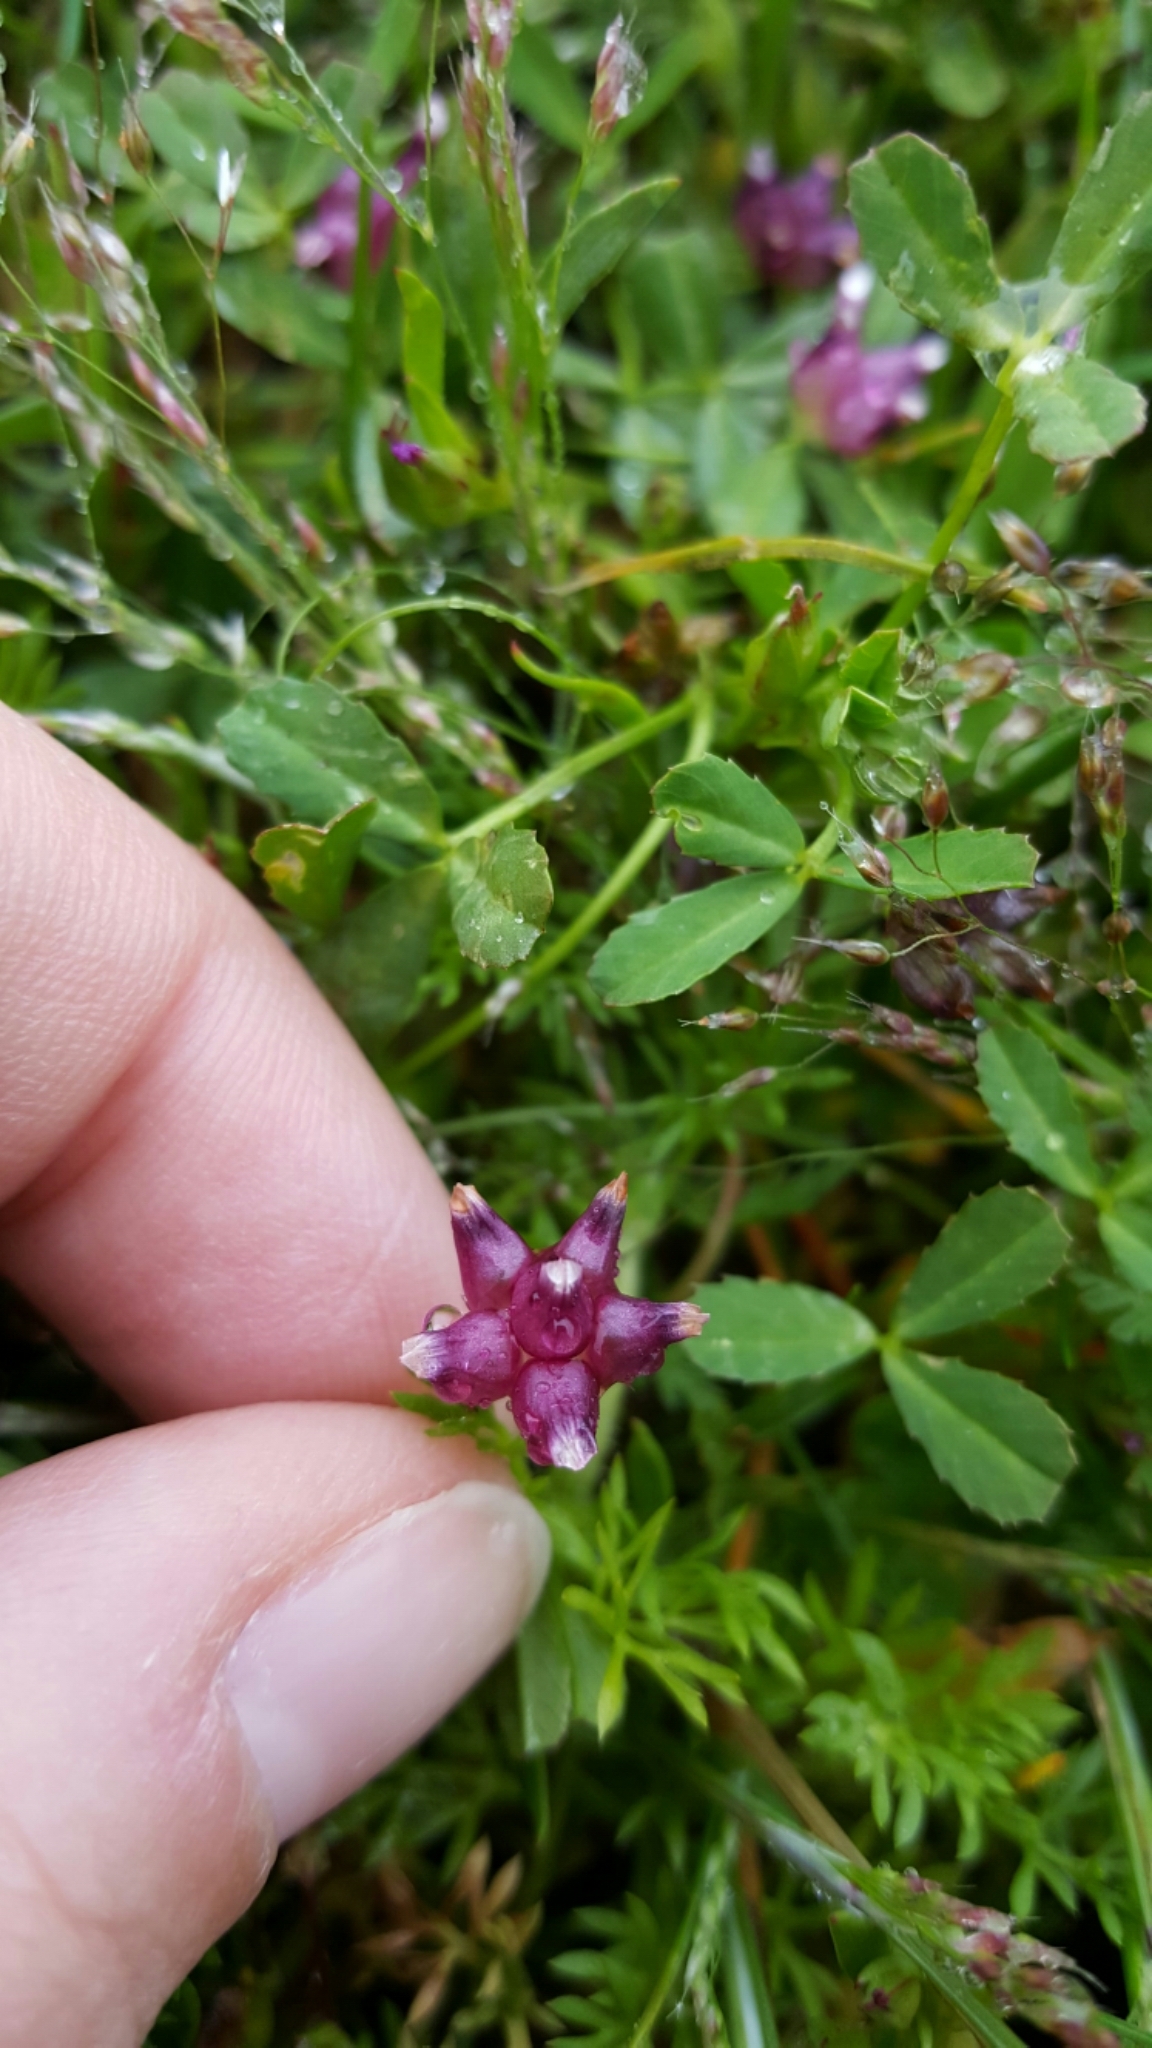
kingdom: Plantae
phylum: Tracheophyta
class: Magnoliopsida
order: Fabales
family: Fabaceae
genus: Trifolium
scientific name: Trifolium depauperatum
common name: Poverty clover
